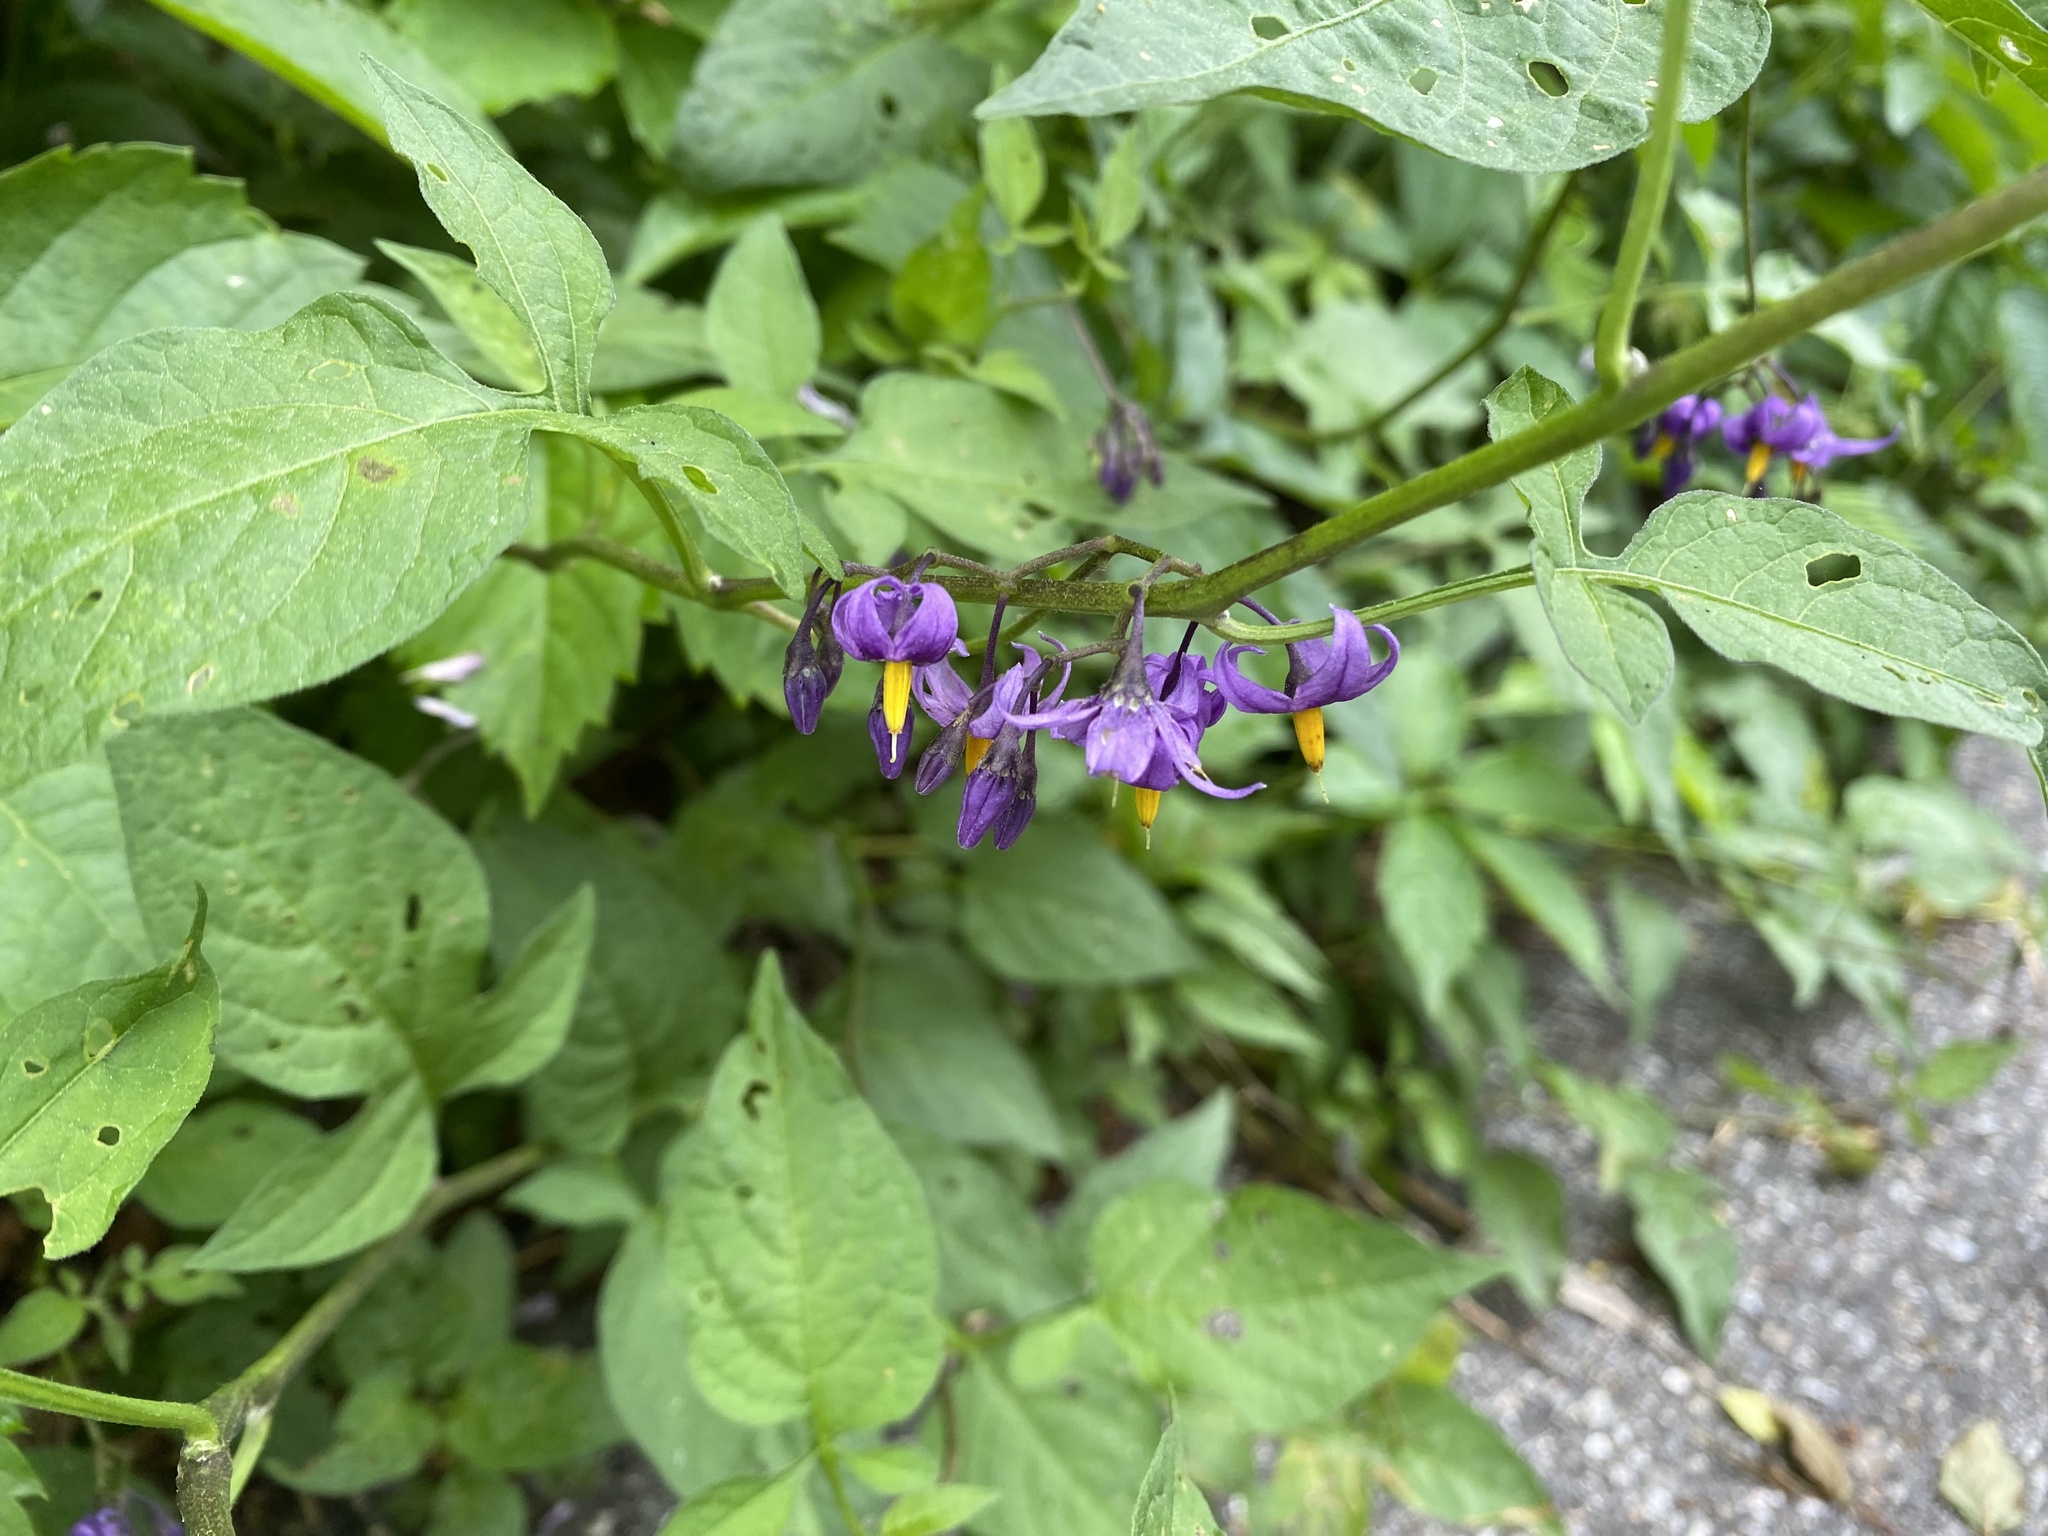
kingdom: Plantae
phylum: Tracheophyta
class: Magnoliopsida
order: Solanales
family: Solanaceae
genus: Solanum
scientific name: Solanum dulcamara
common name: Climbing nightshade
